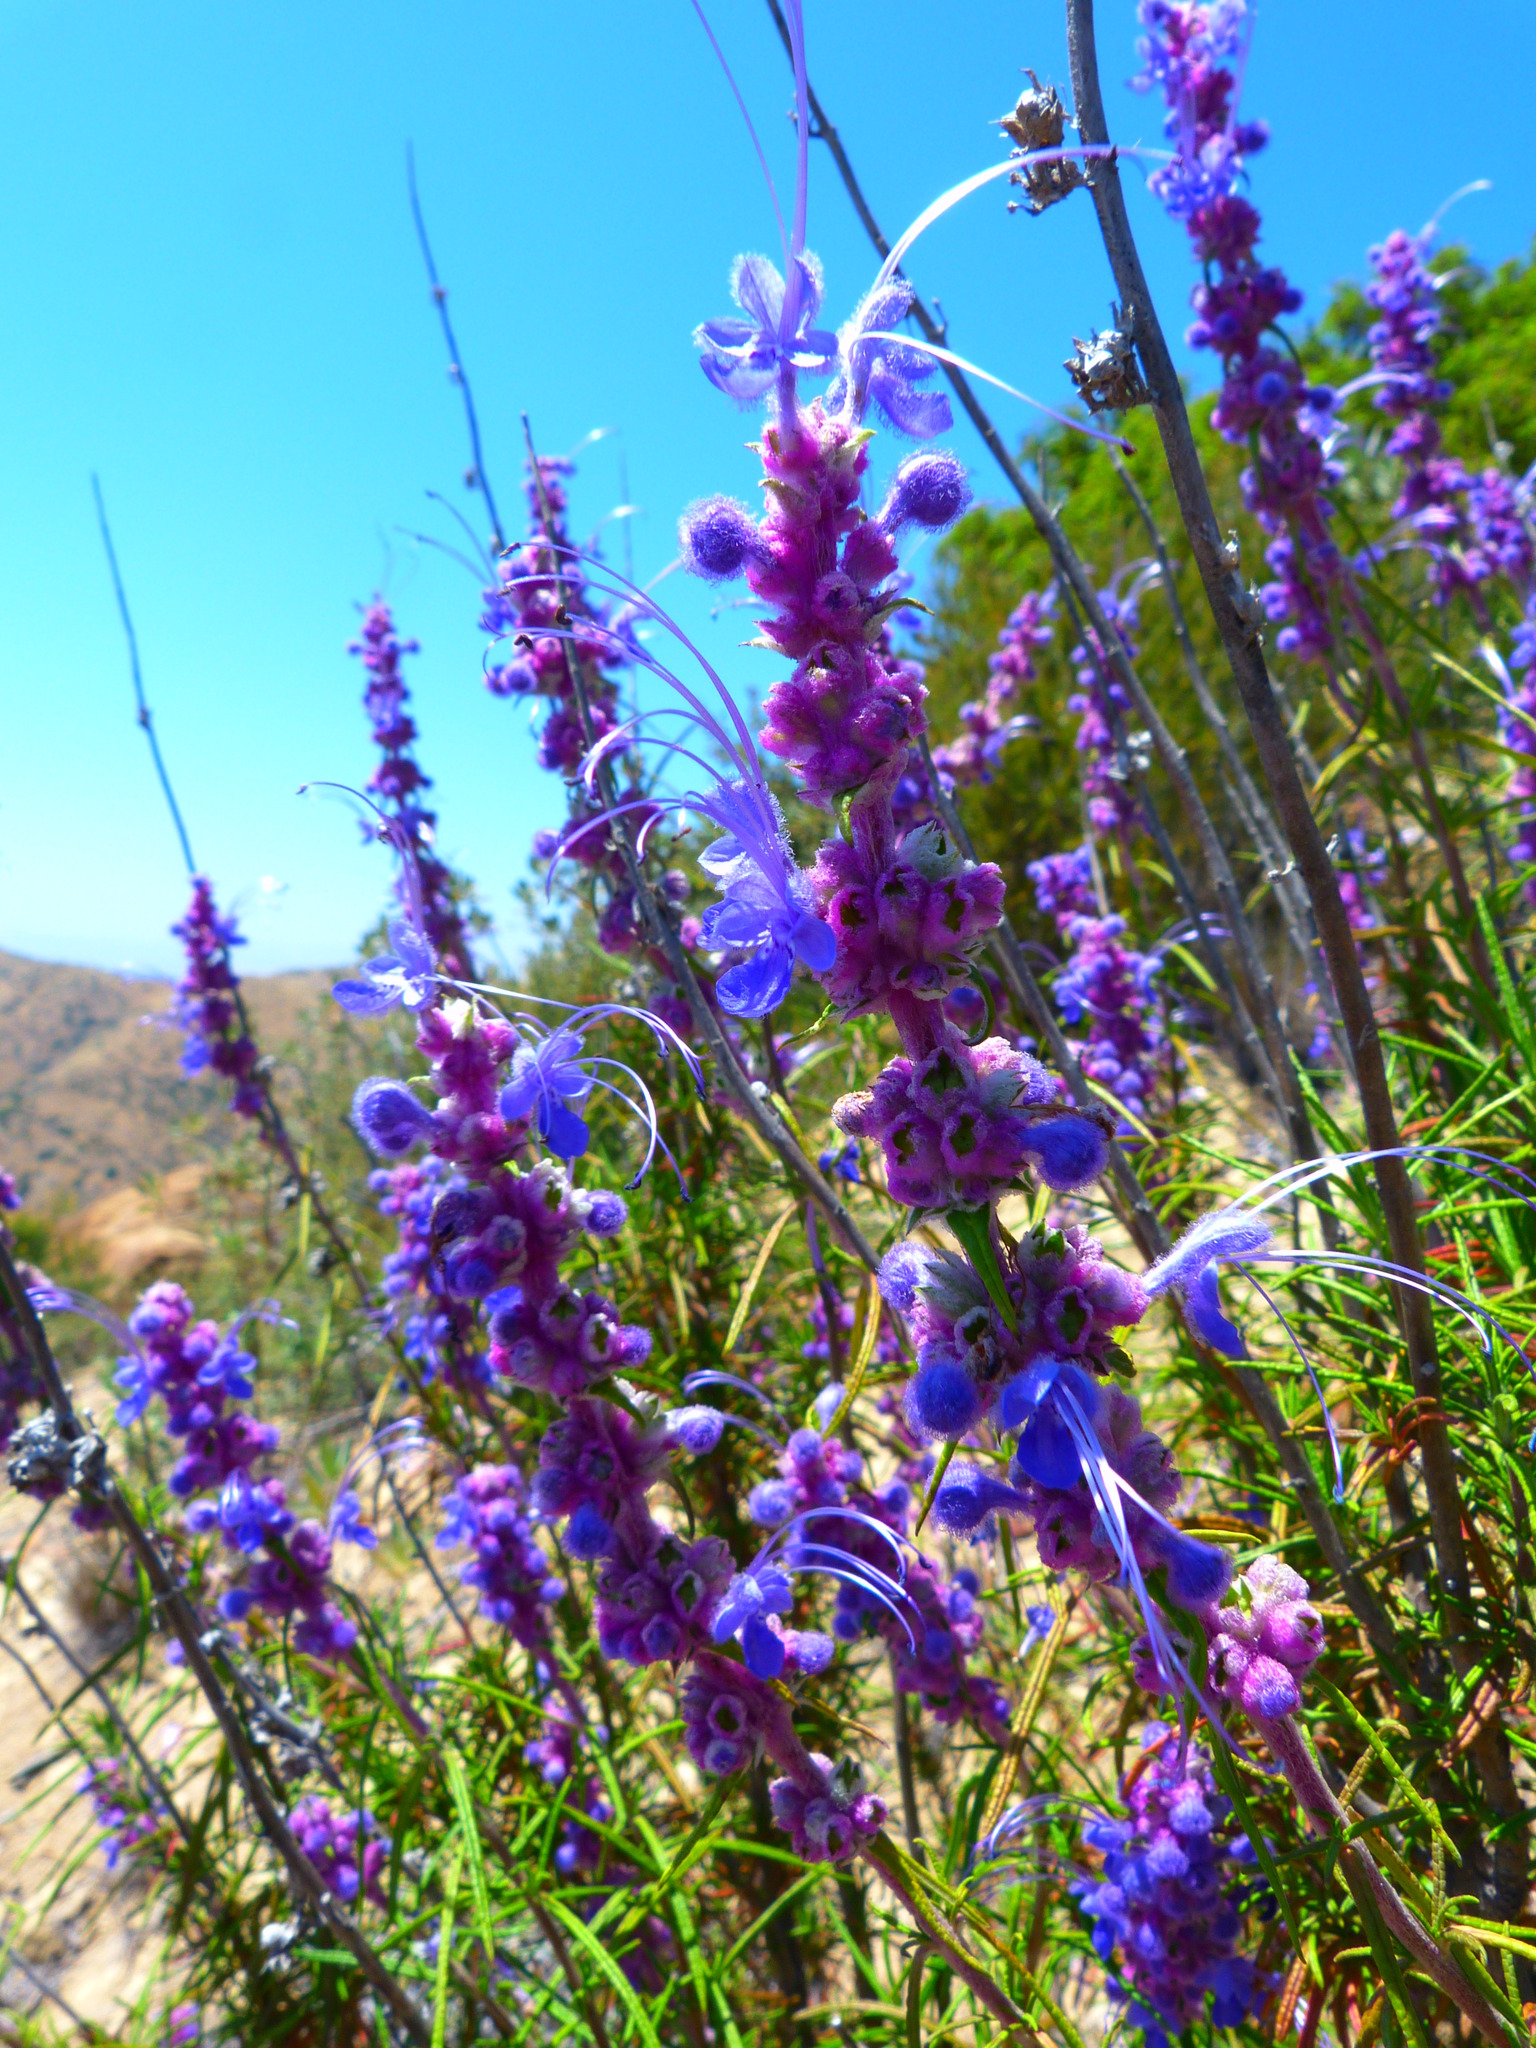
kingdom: Plantae
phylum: Tracheophyta
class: Magnoliopsida
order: Lamiales
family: Lamiaceae
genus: Trichostema
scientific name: Trichostema lanatum
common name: Woolly bluecurls
